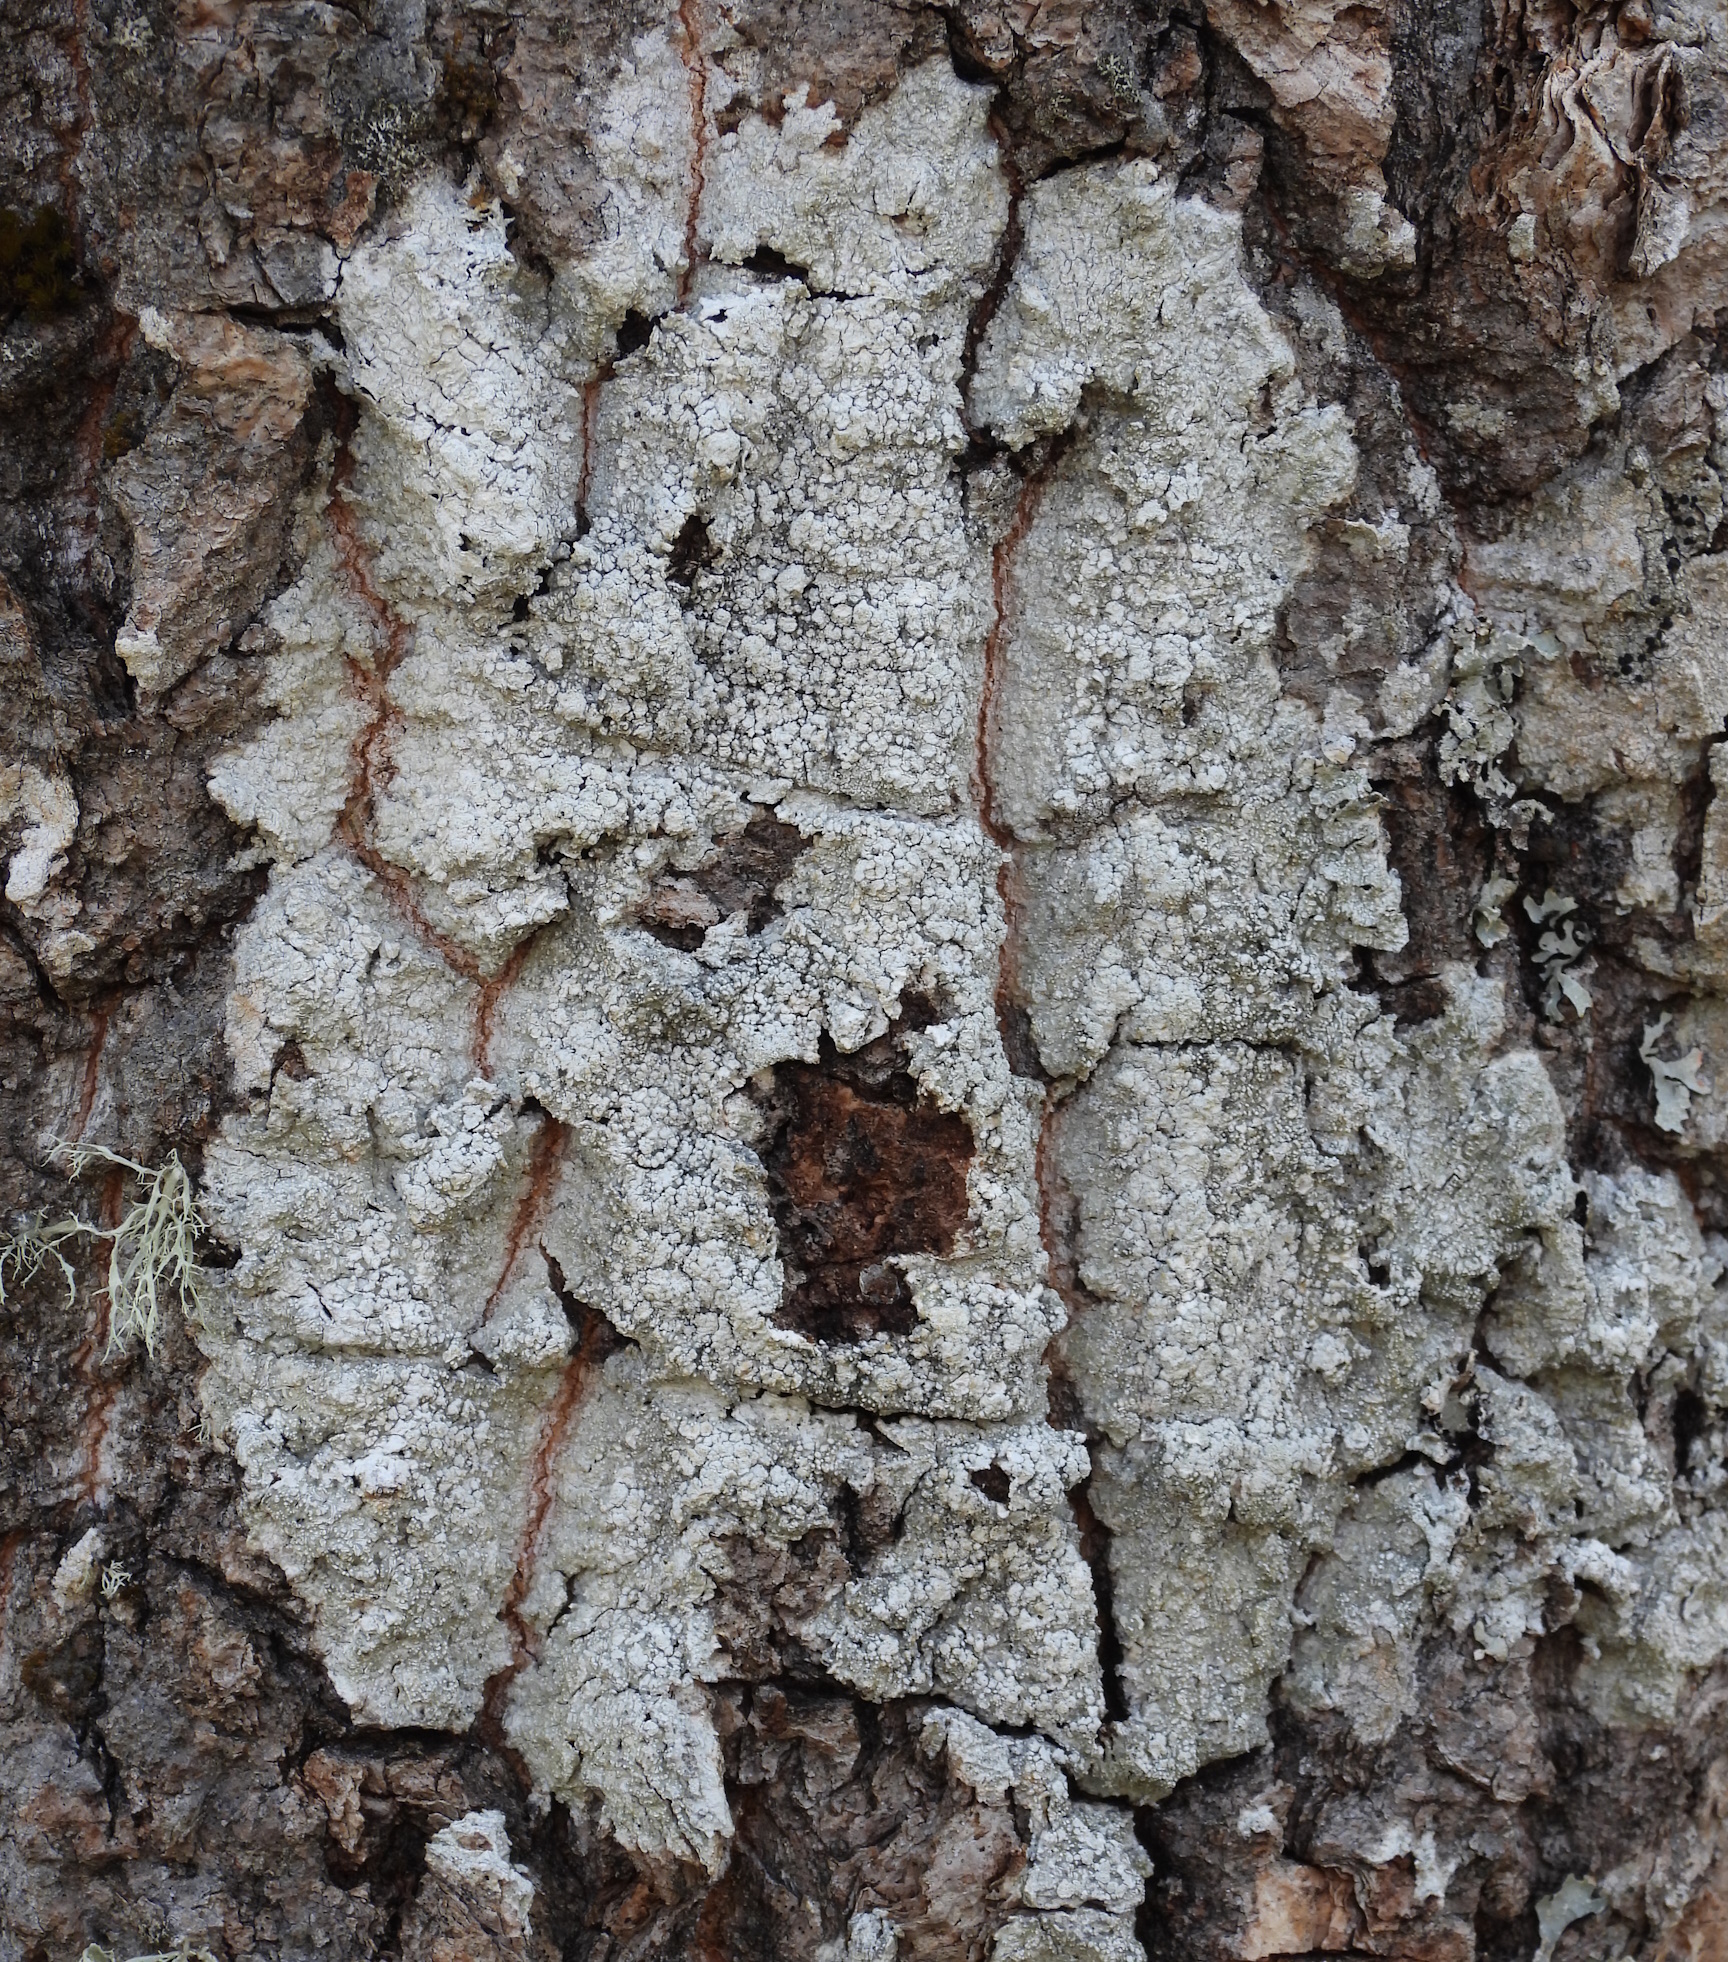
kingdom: Fungi
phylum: Ascomycota
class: Lecanoromycetes
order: Pertusariales
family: Pertusariaceae
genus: Lepra
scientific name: Lepra amara
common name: Bitter wart lichen
